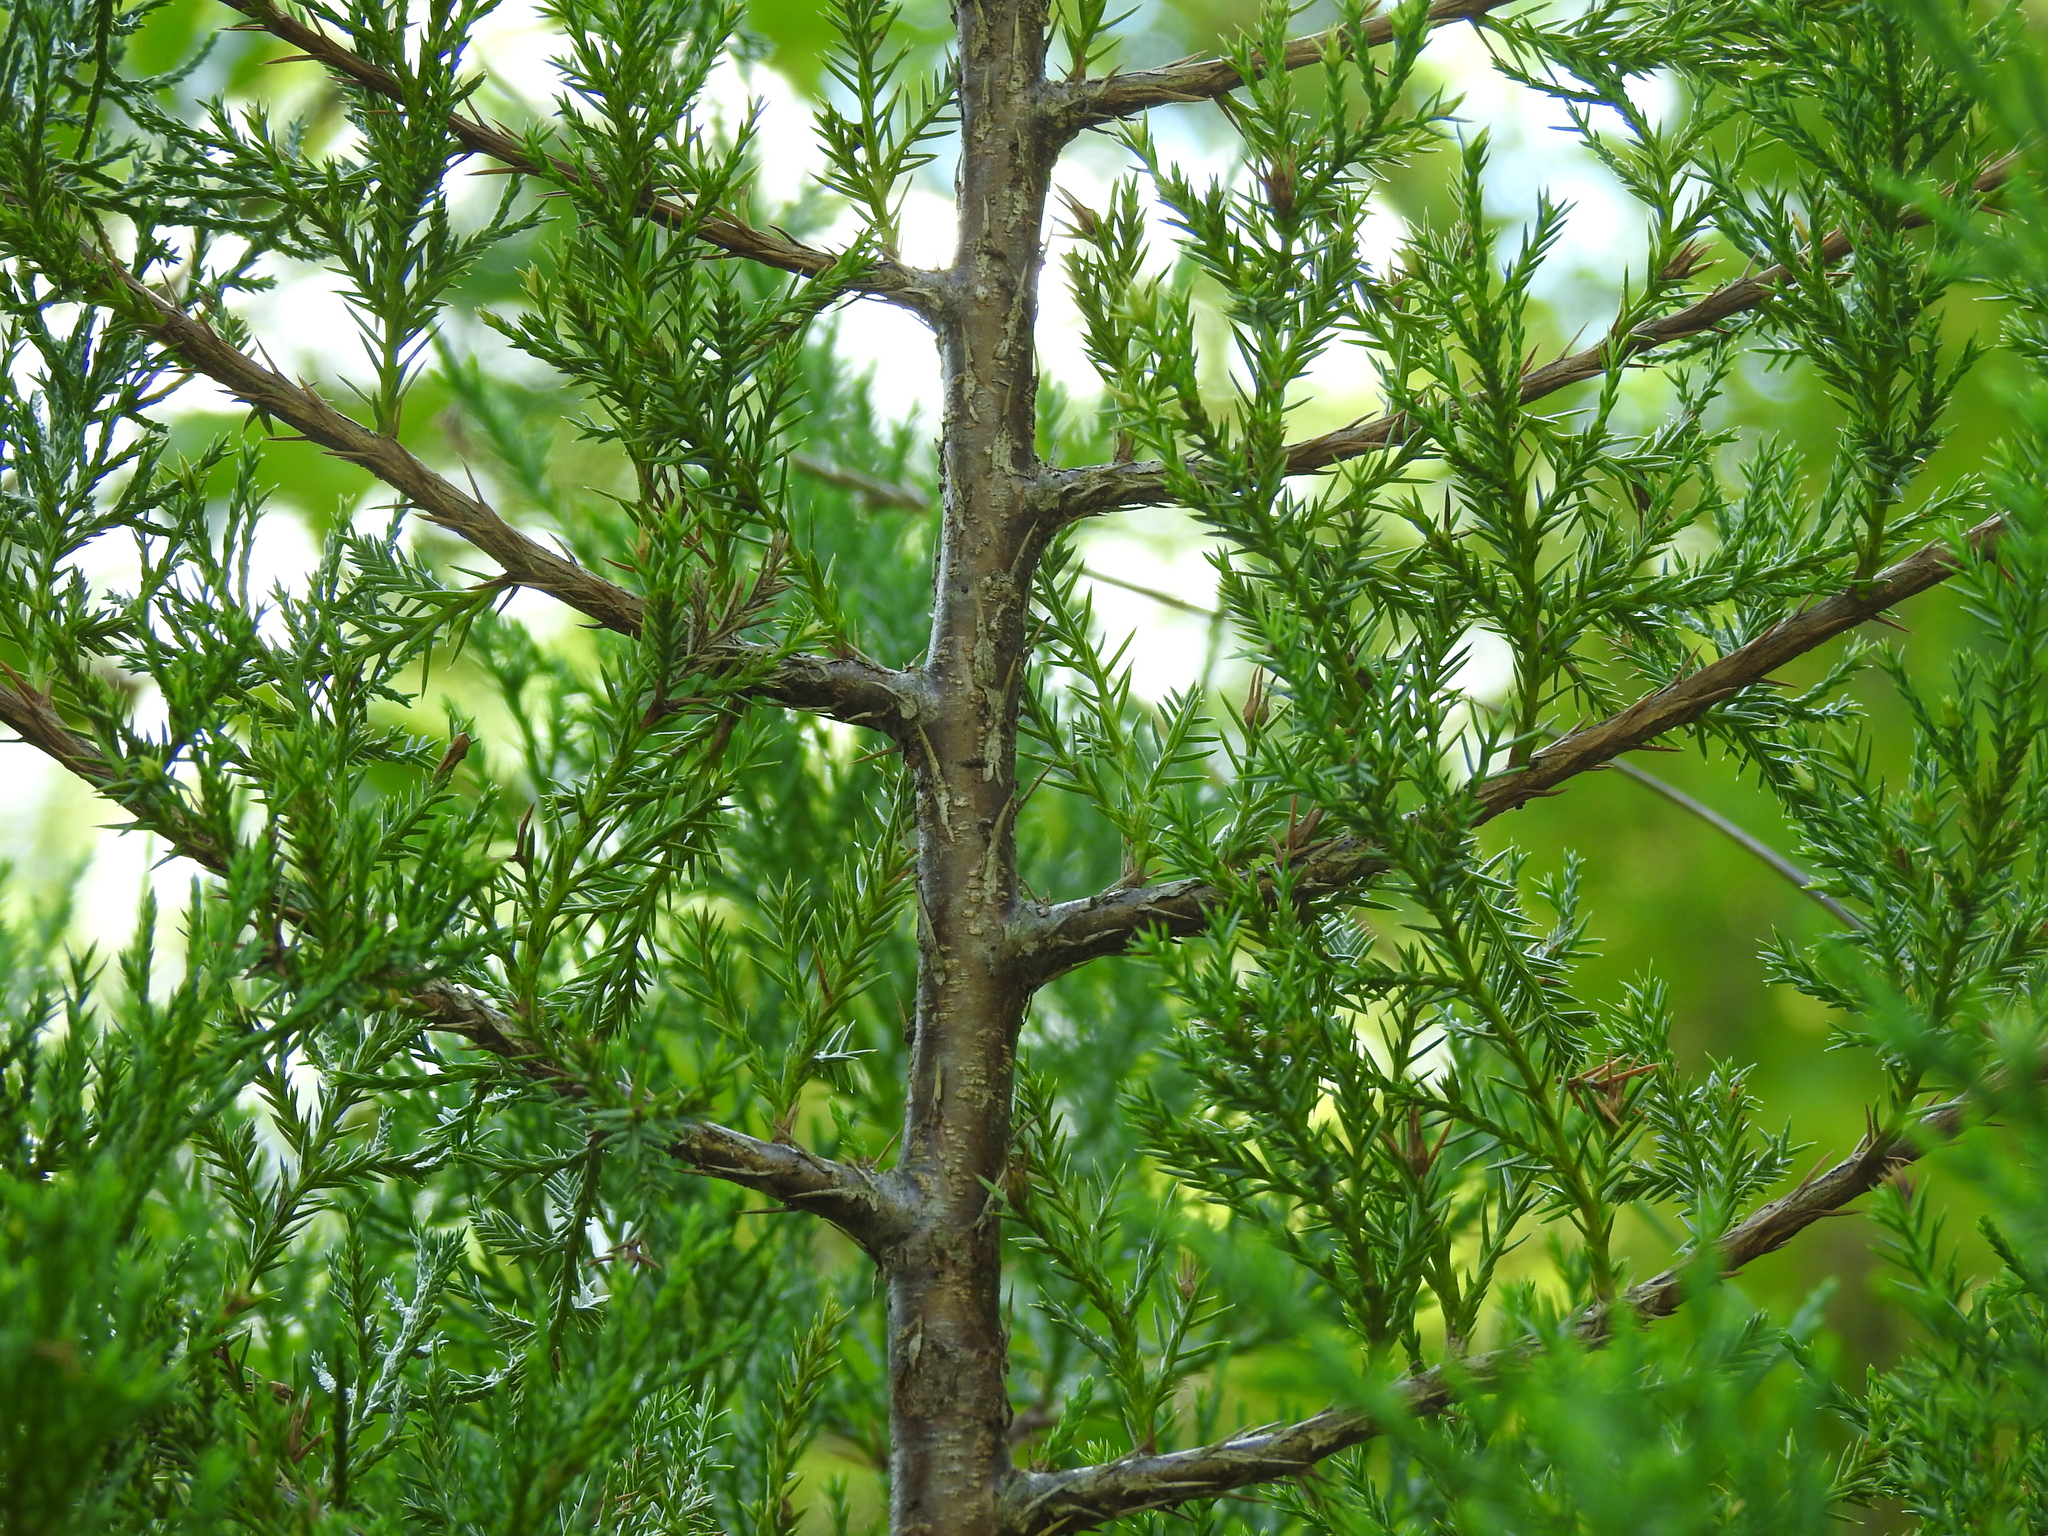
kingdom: Plantae
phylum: Tracheophyta
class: Pinopsida
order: Pinales
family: Cupressaceae
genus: Juniperus
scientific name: Juniperus virginiana
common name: Red juniper
